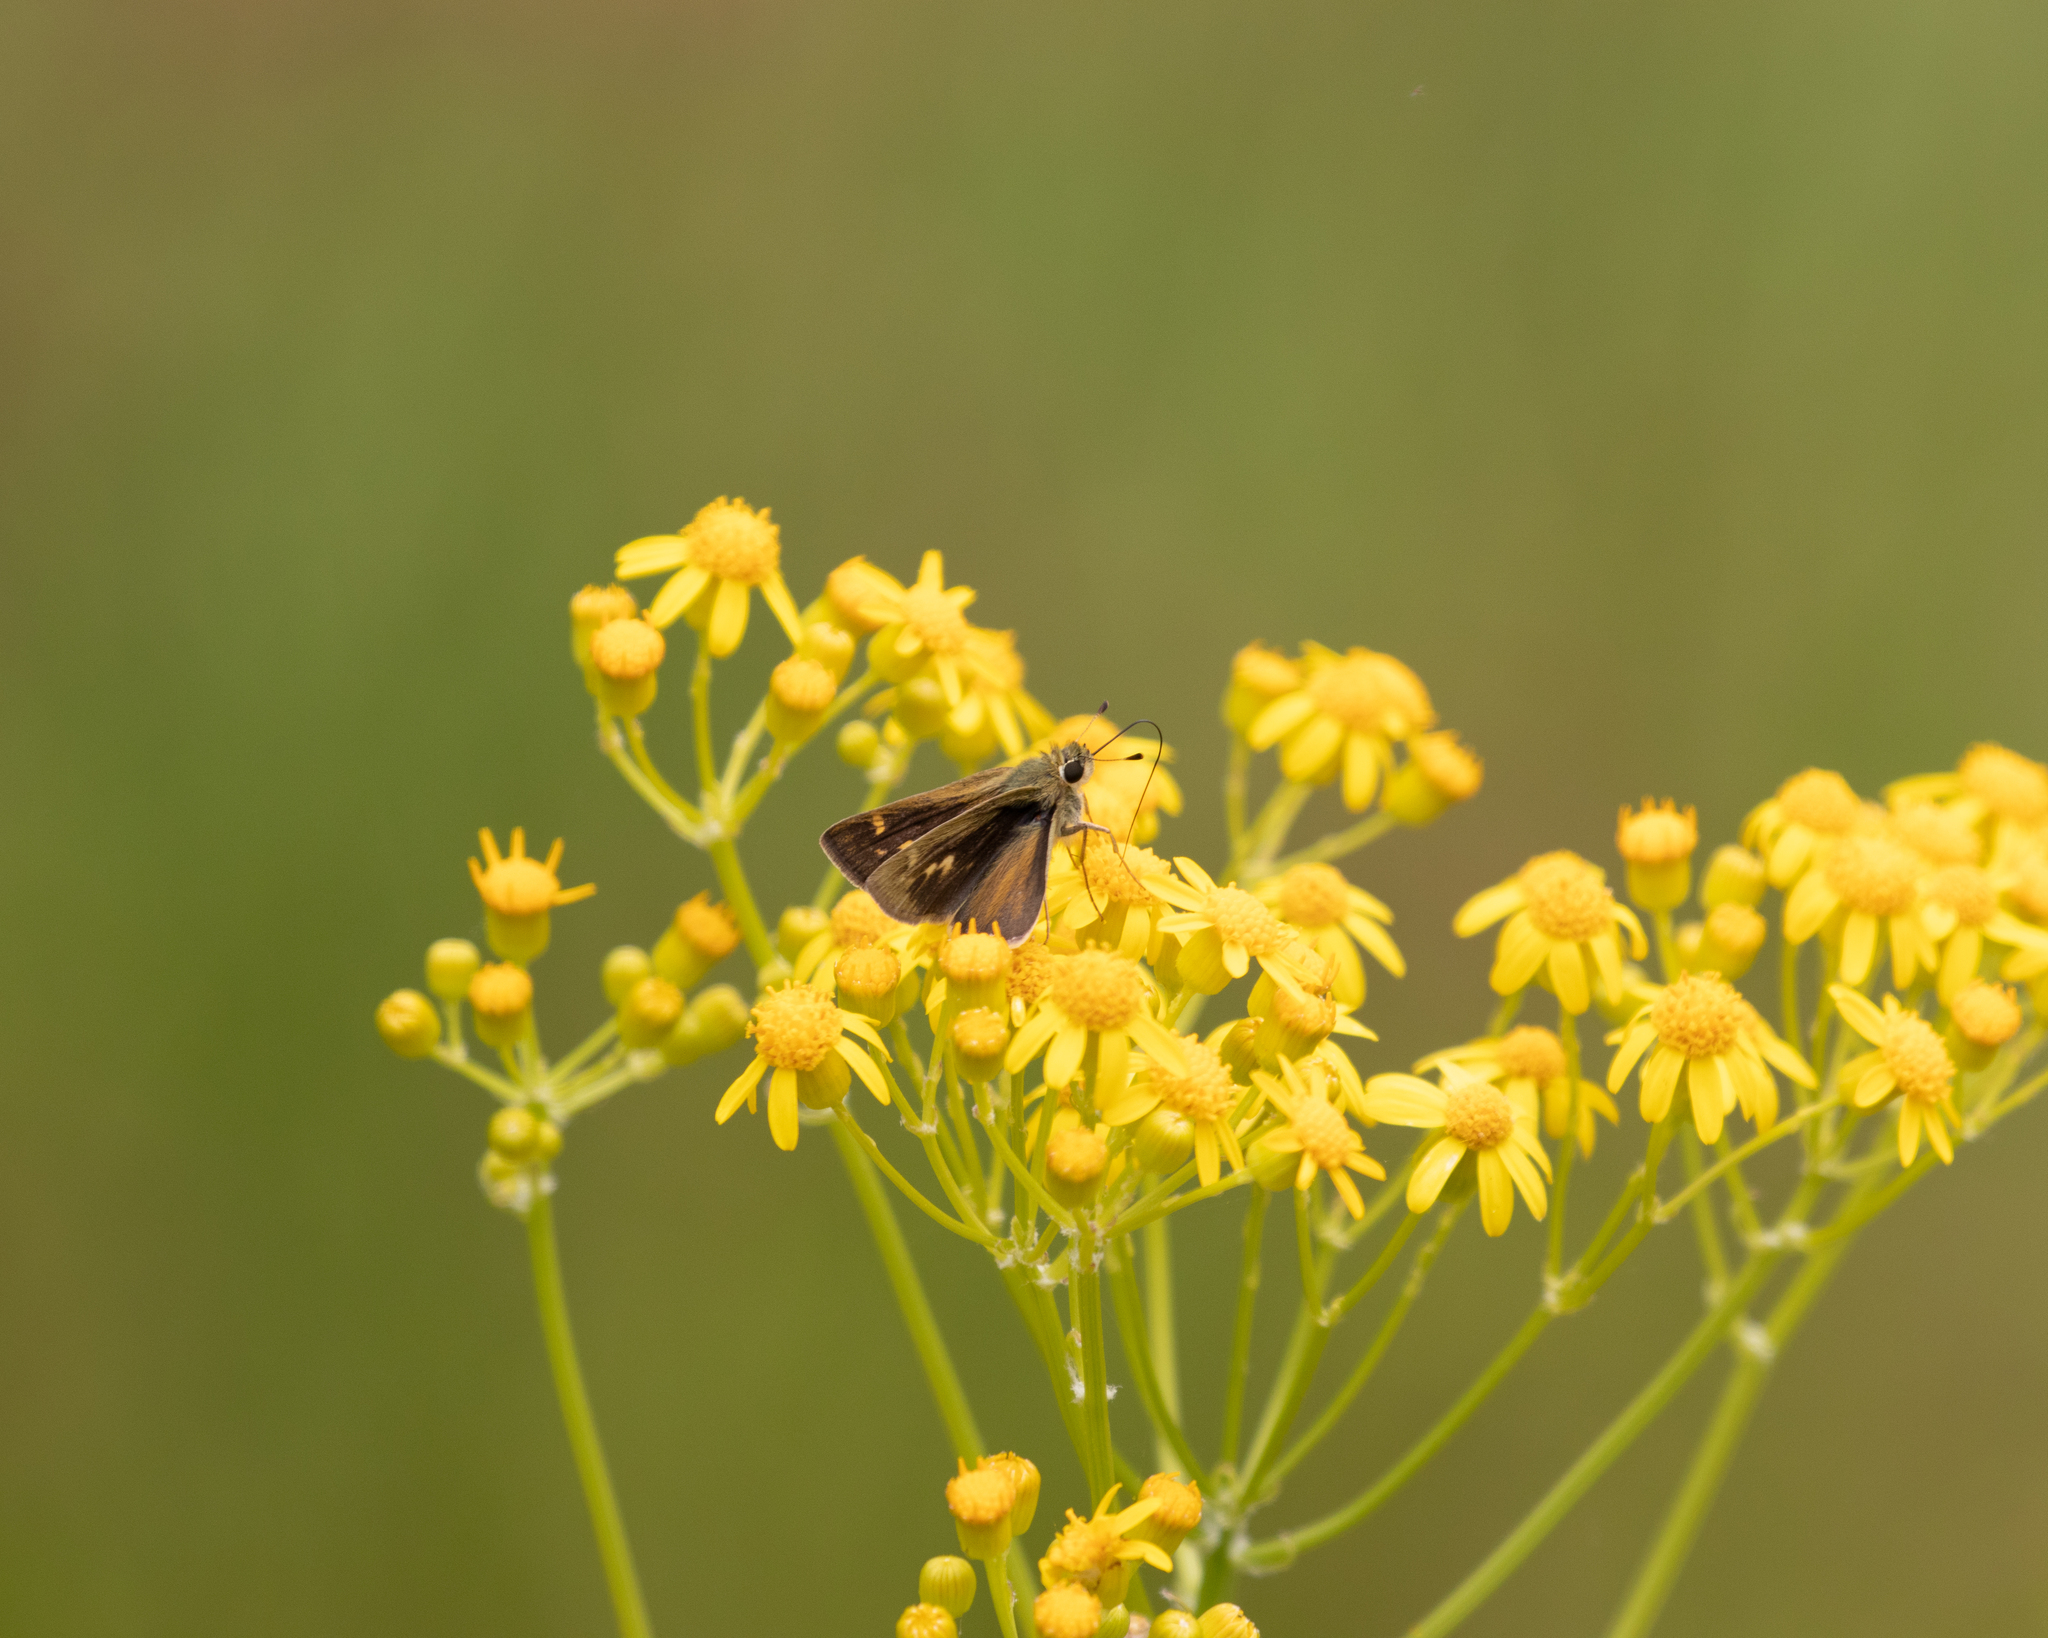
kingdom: Animalia
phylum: Arthropoda
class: Insecta
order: Lepidoptera
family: Hesperiidae
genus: Polites
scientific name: Polites vibex
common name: Whirlabout
